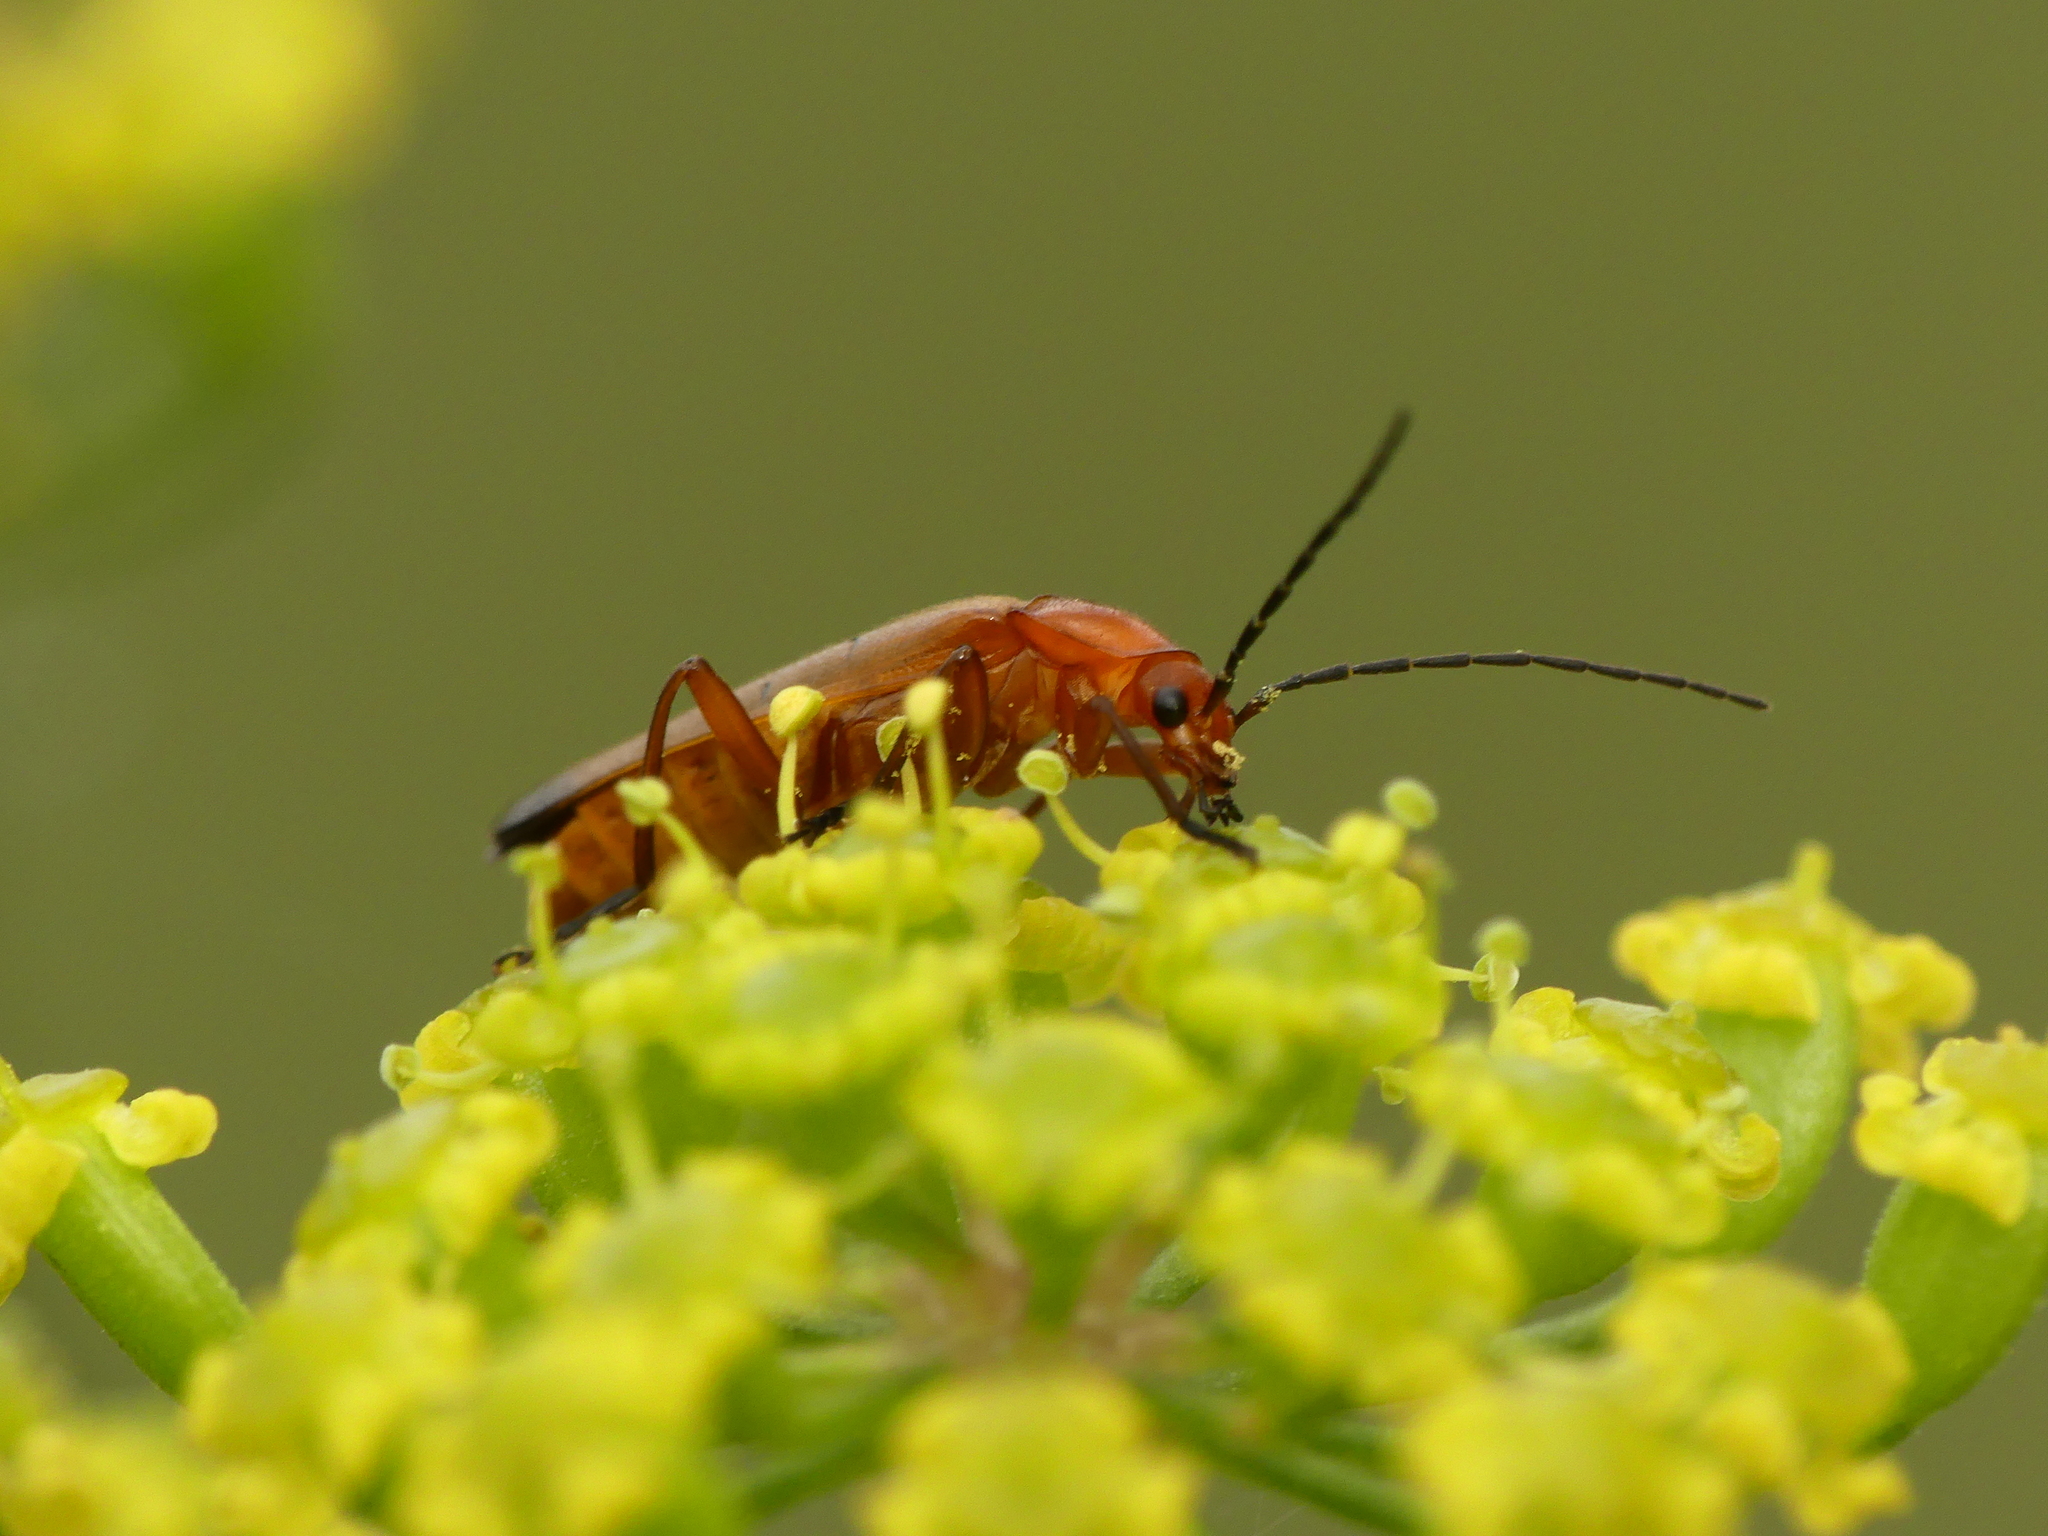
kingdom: Animalia
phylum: Arthropoda
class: Insecta
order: Coleoptera
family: Cantharidae
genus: Rhagonycha
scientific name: Rhagonycha fulva
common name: Common red soldier beetle
